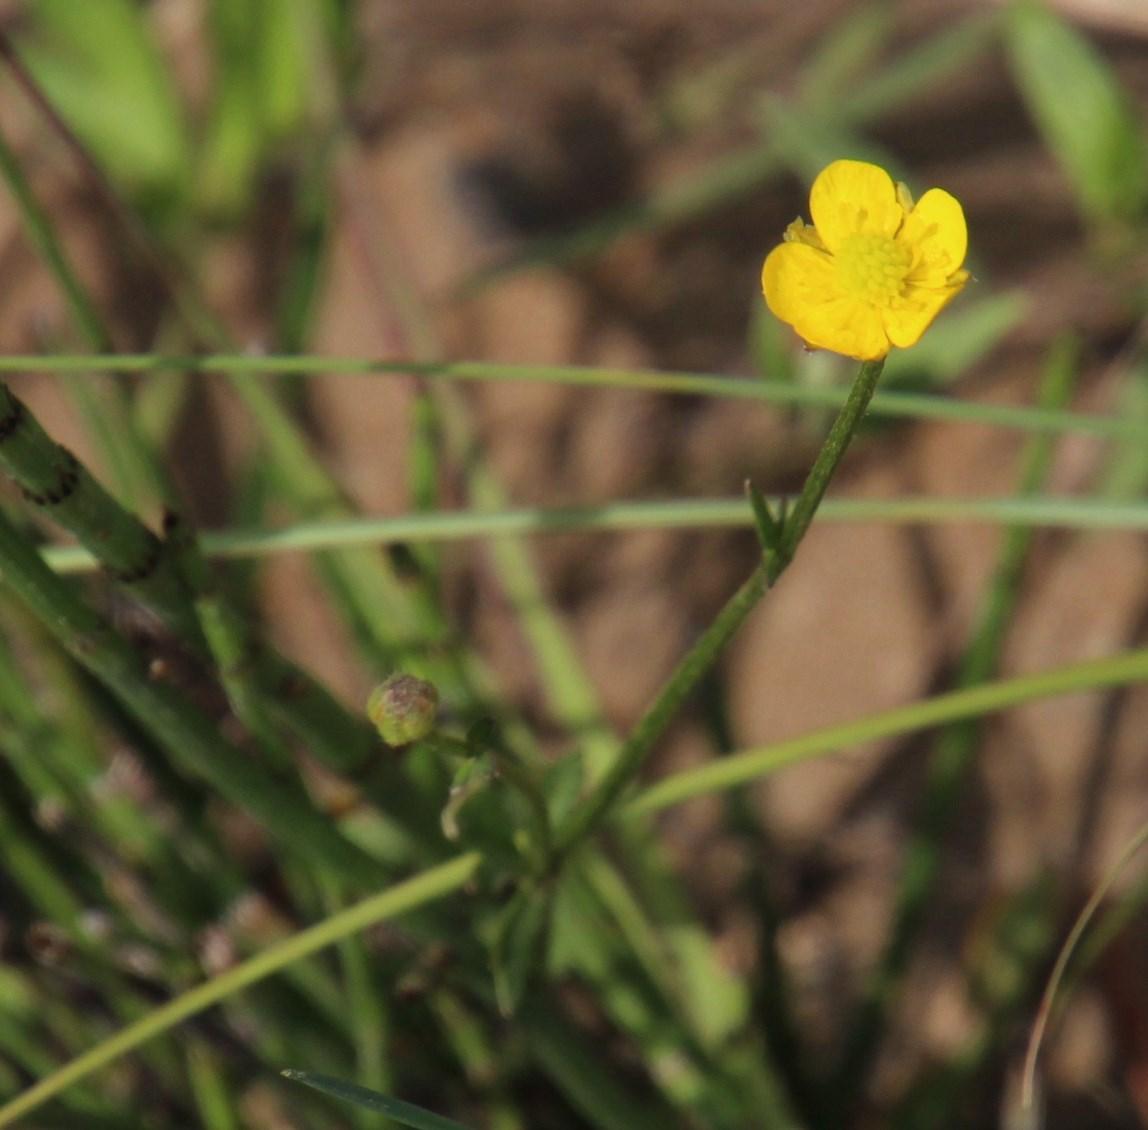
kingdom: Plantae
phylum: Tracheophyta
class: Magnoliopsida
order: Ranunculales
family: Ranunculaceae
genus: Ranunculus
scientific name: Ranunculus multifidus
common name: Wild buttercup
